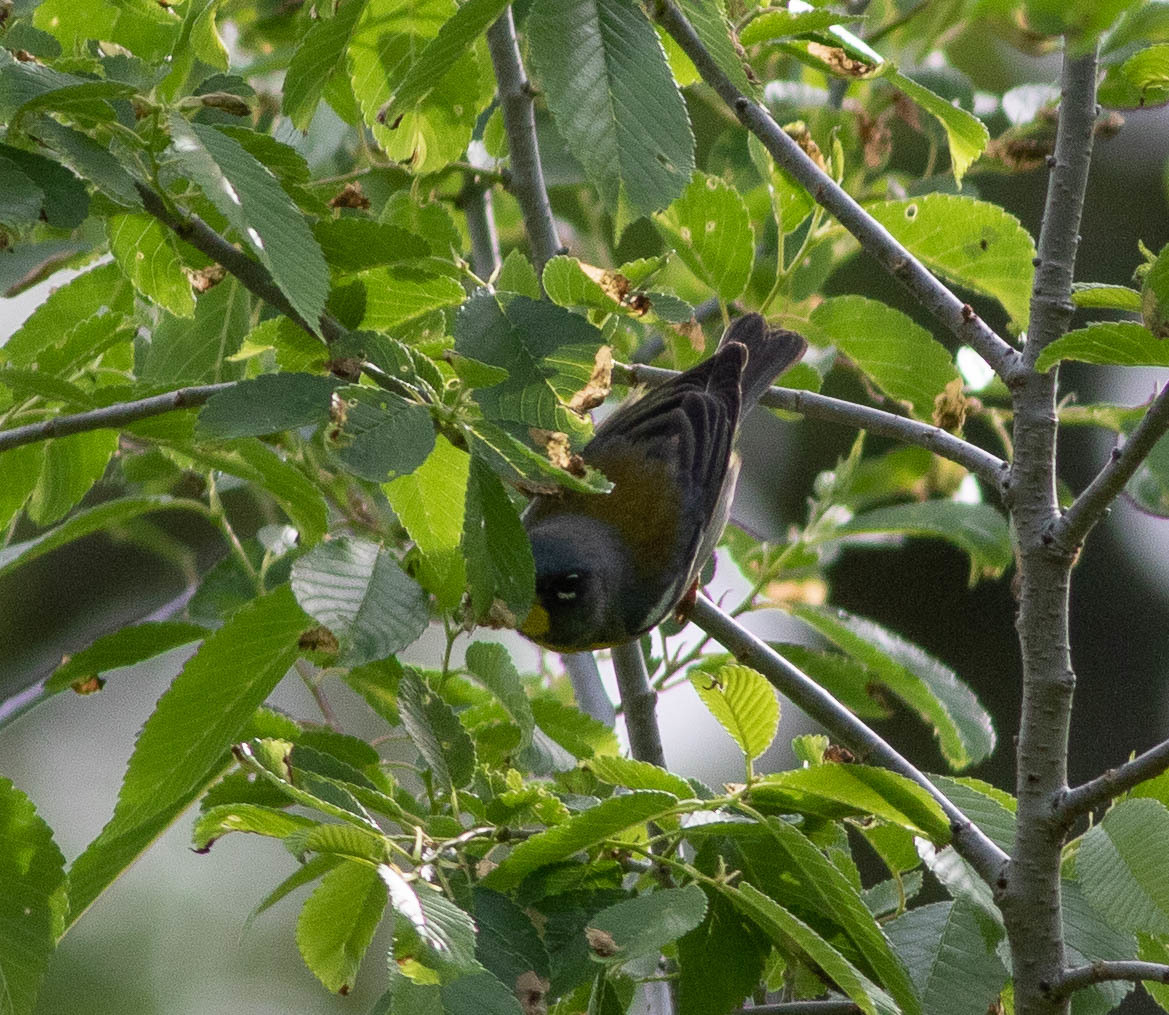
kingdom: Animalia
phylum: Chordata
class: Aves
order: Passeriformes
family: Parulidae
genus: Setophaga
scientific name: Setophaga americana
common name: Northern parula
